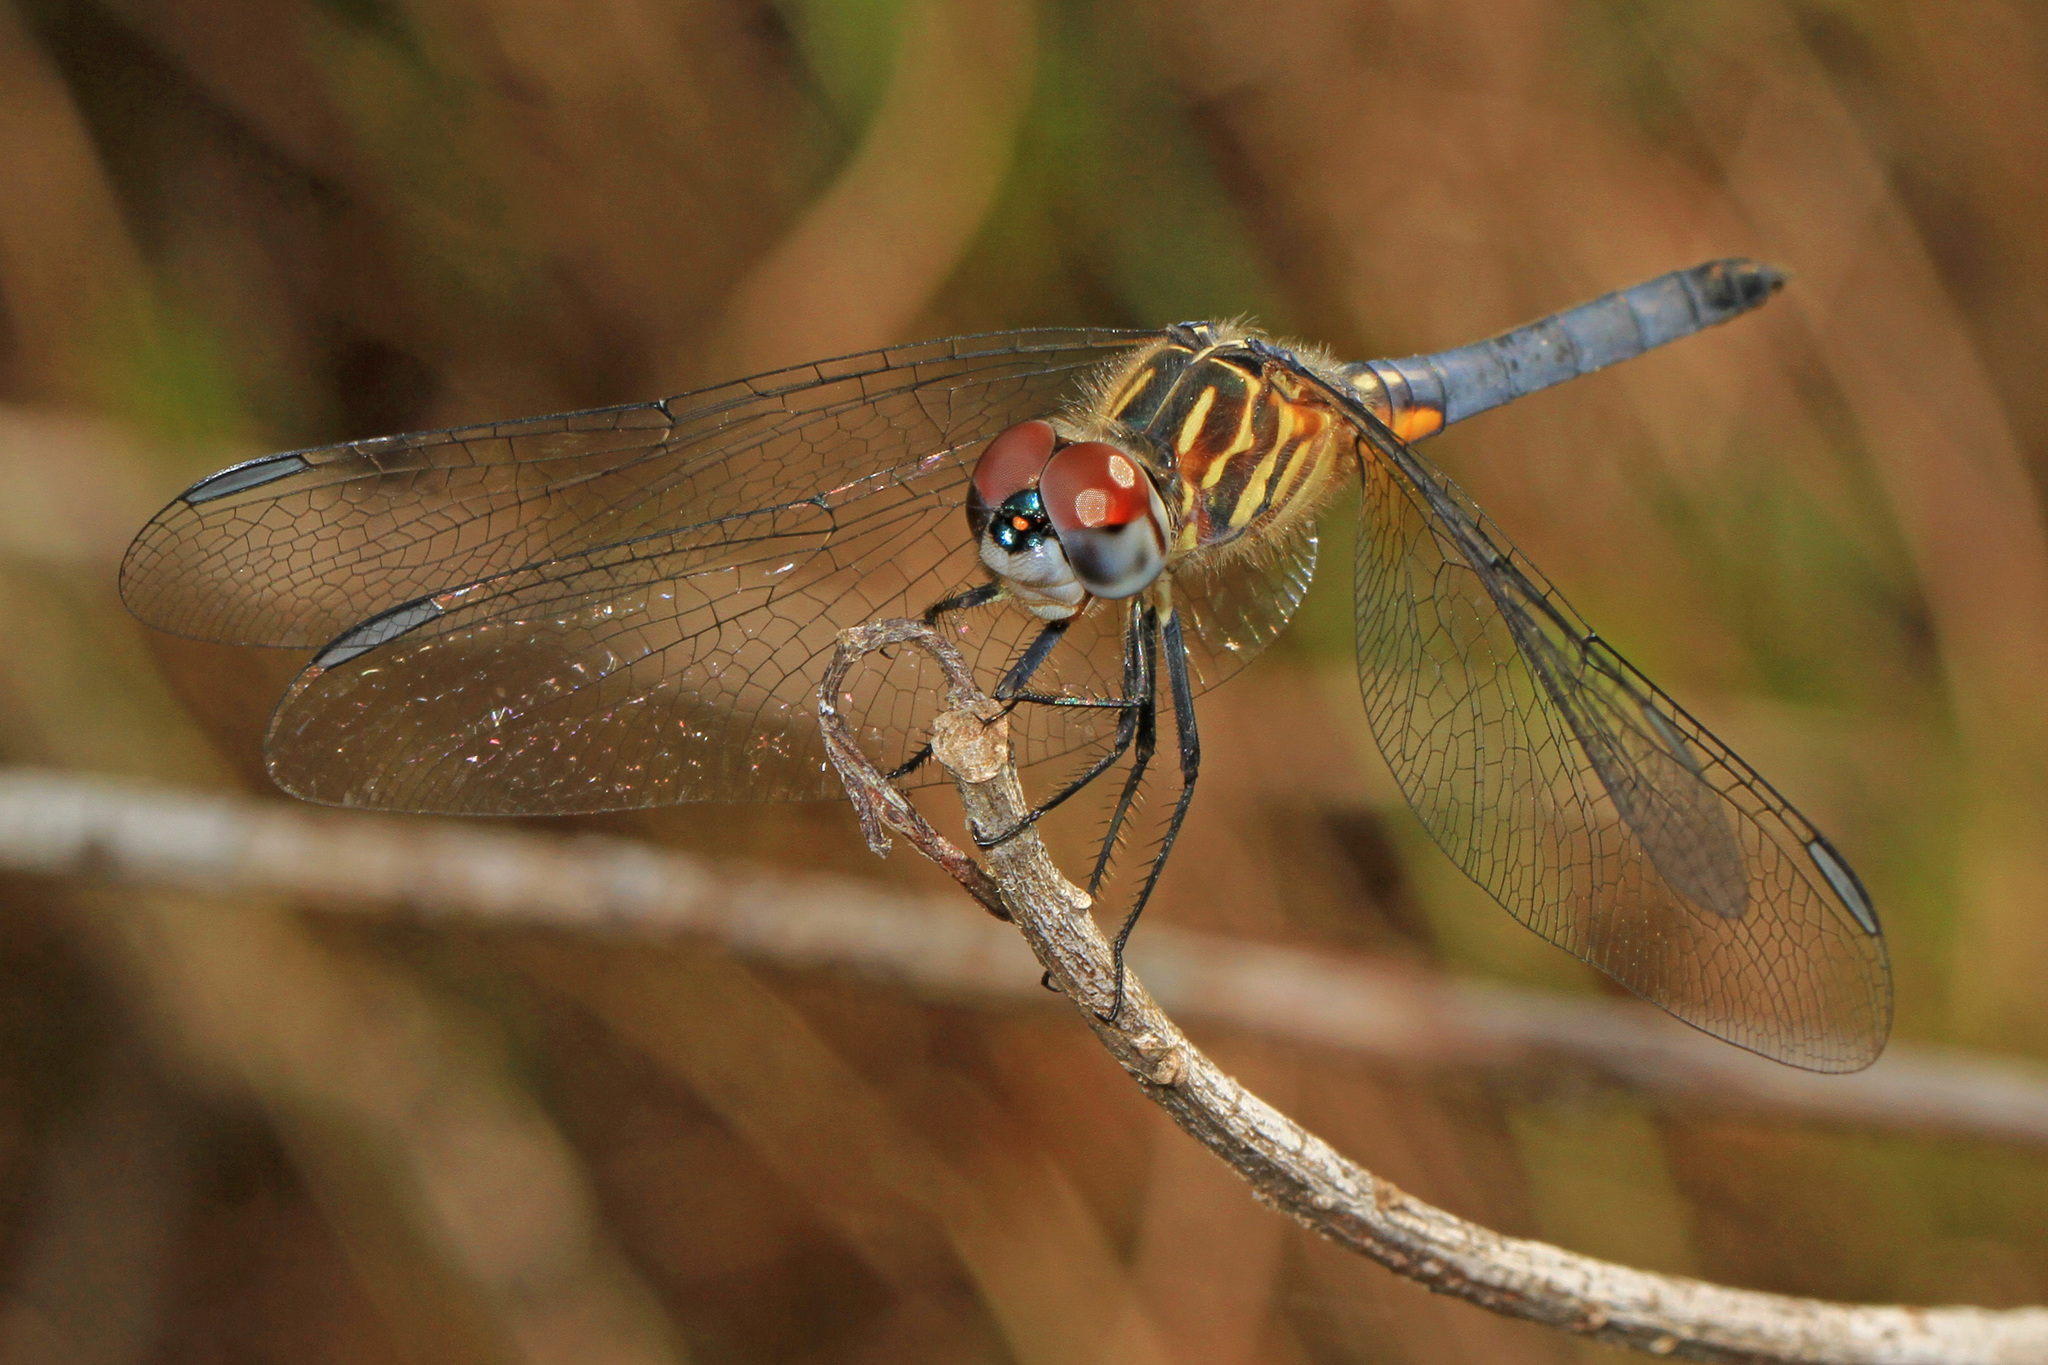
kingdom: Animalia
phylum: Arthropoda
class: Insecta
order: Odonata
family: Libellulidae
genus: Pachydiplax
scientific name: Pachydiplax longipennis
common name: Blue dasher
